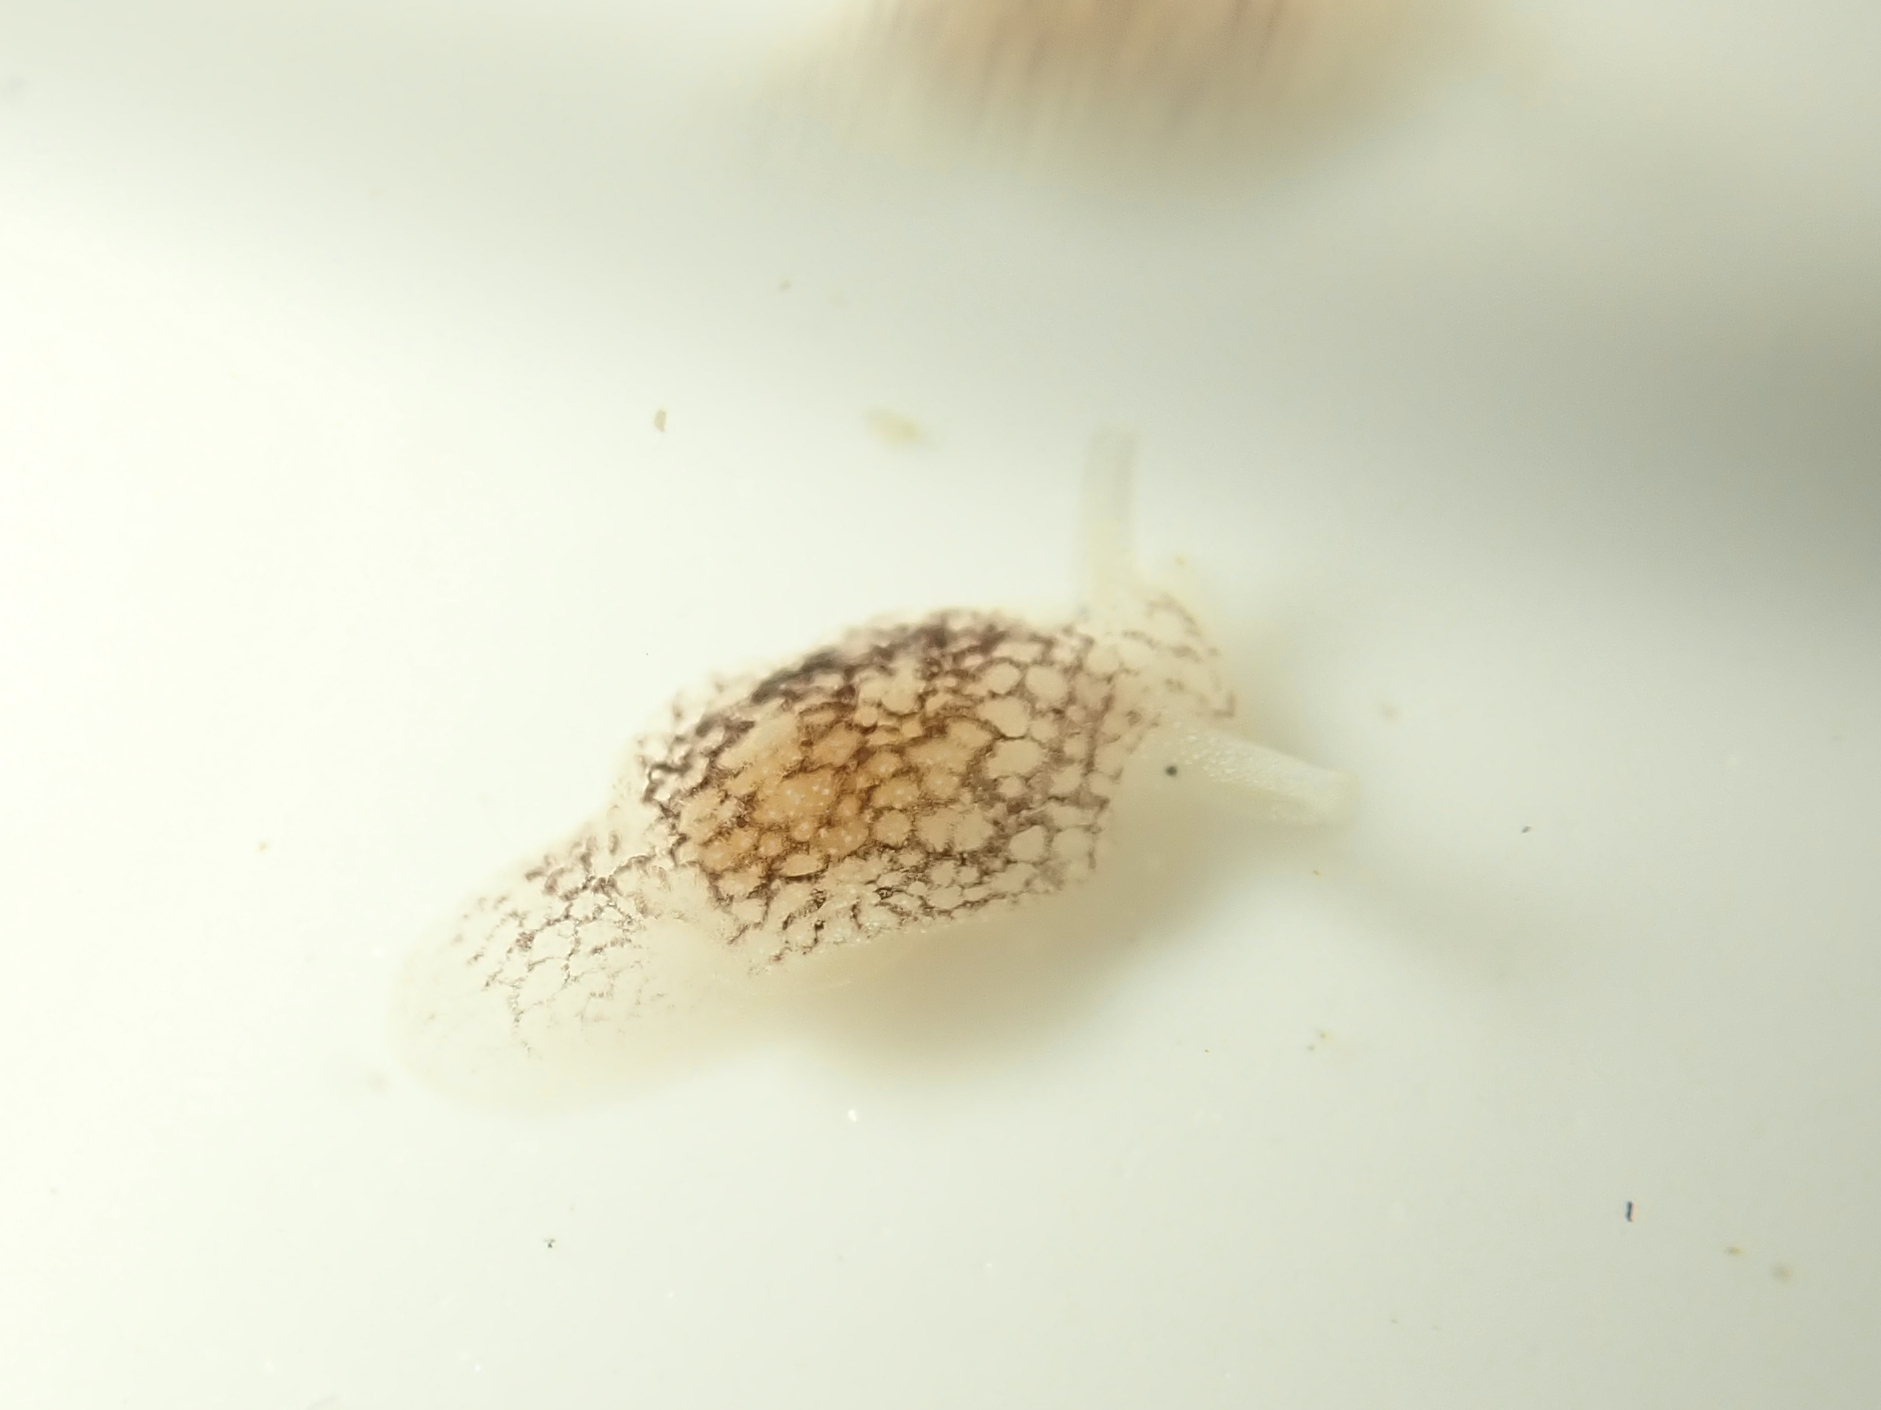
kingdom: Animalia
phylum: Mollusca
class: Gastropoda
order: Pleurobranchida
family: Pleurobranchaeidae
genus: Pleurobranchaea
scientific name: Pleurobranchaea maculata
